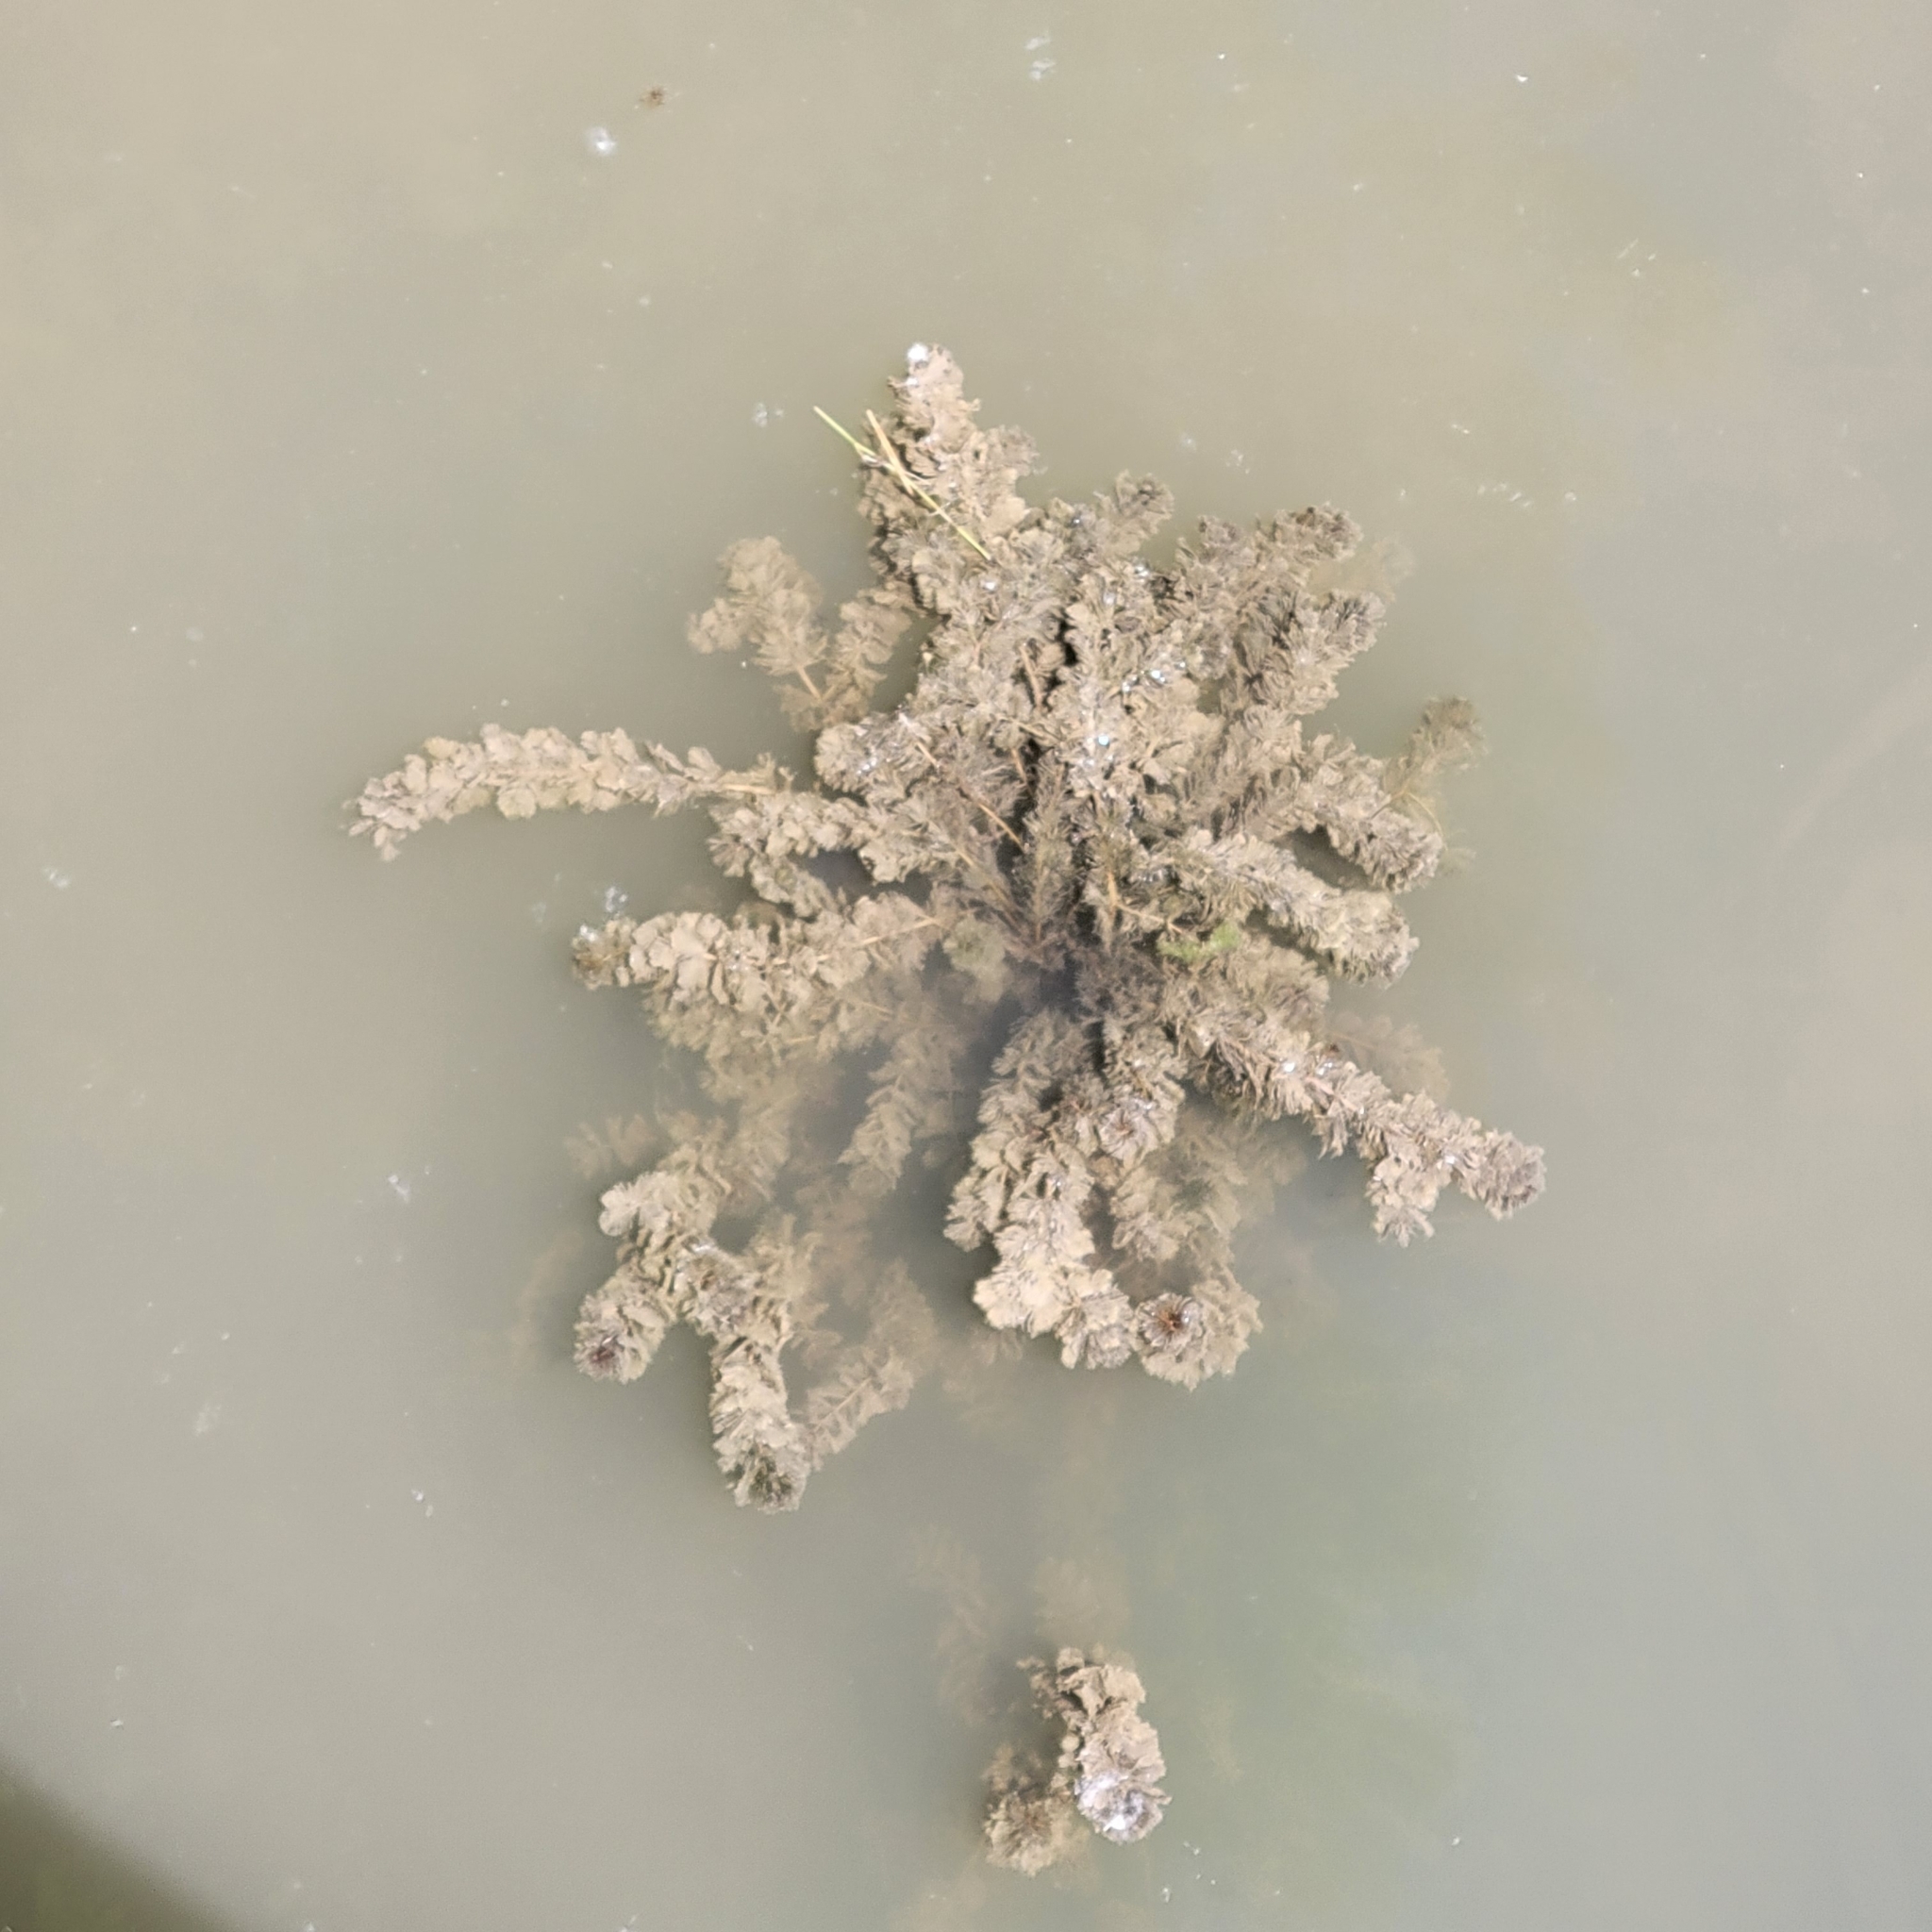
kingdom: Plantae
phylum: Tracheophyta
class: Magnoliopsida
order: Saxifragales
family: Haloragaceae
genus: Myriophyllum
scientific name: Myriophyllum spicatum
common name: Spiked water-milfoil
